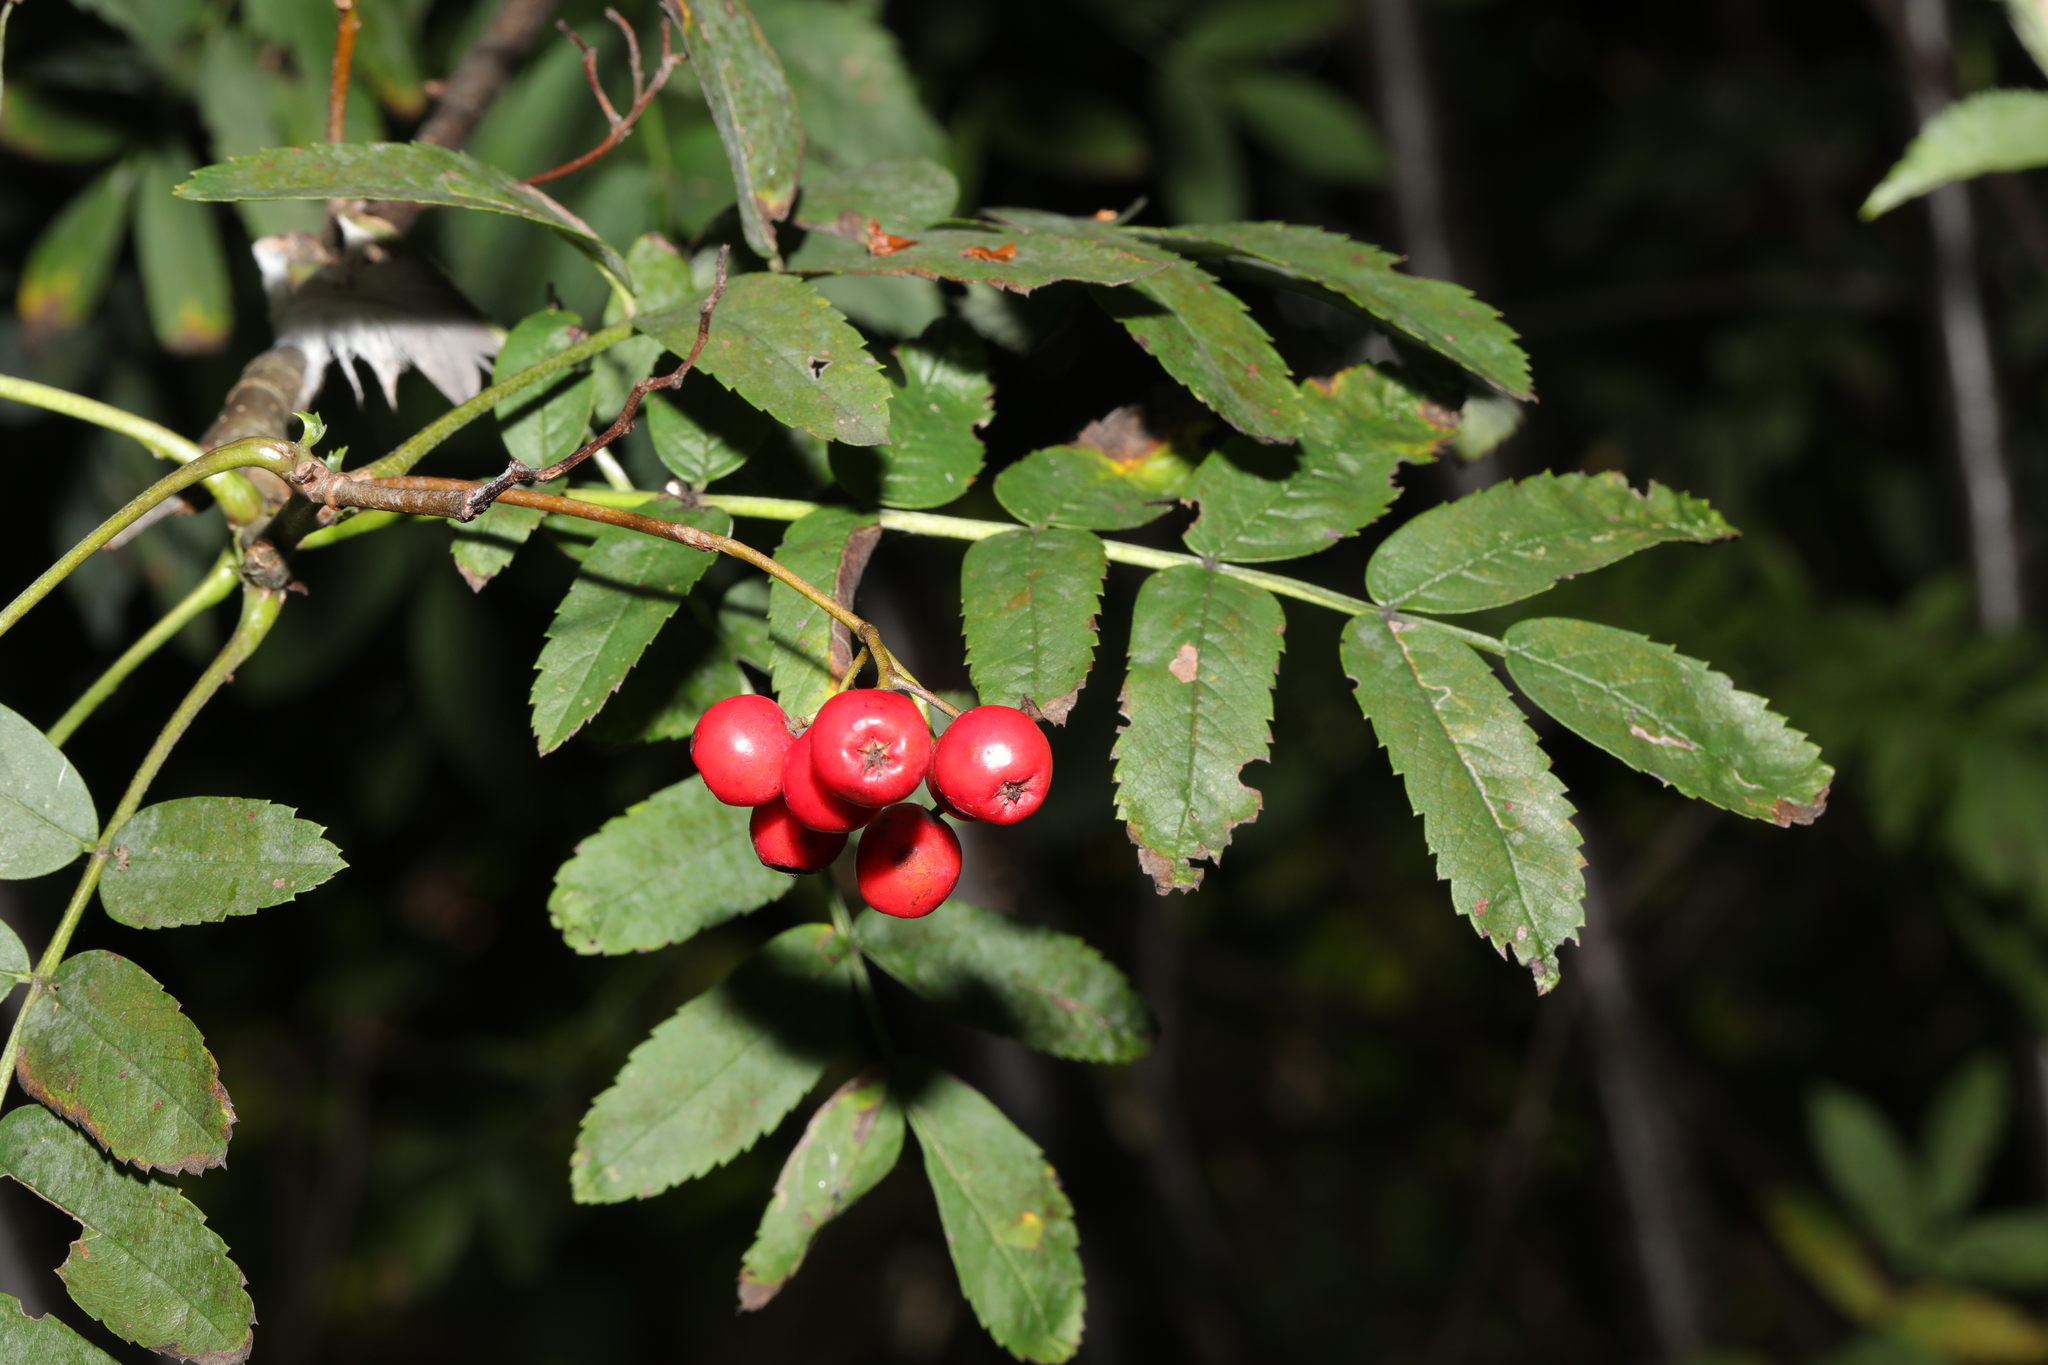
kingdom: Plantae
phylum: Tracheophyta
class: Magnoliopsida
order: Rosales
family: Rosaceae
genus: Sorbus
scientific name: Sorbus aucuparia
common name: Rowan
